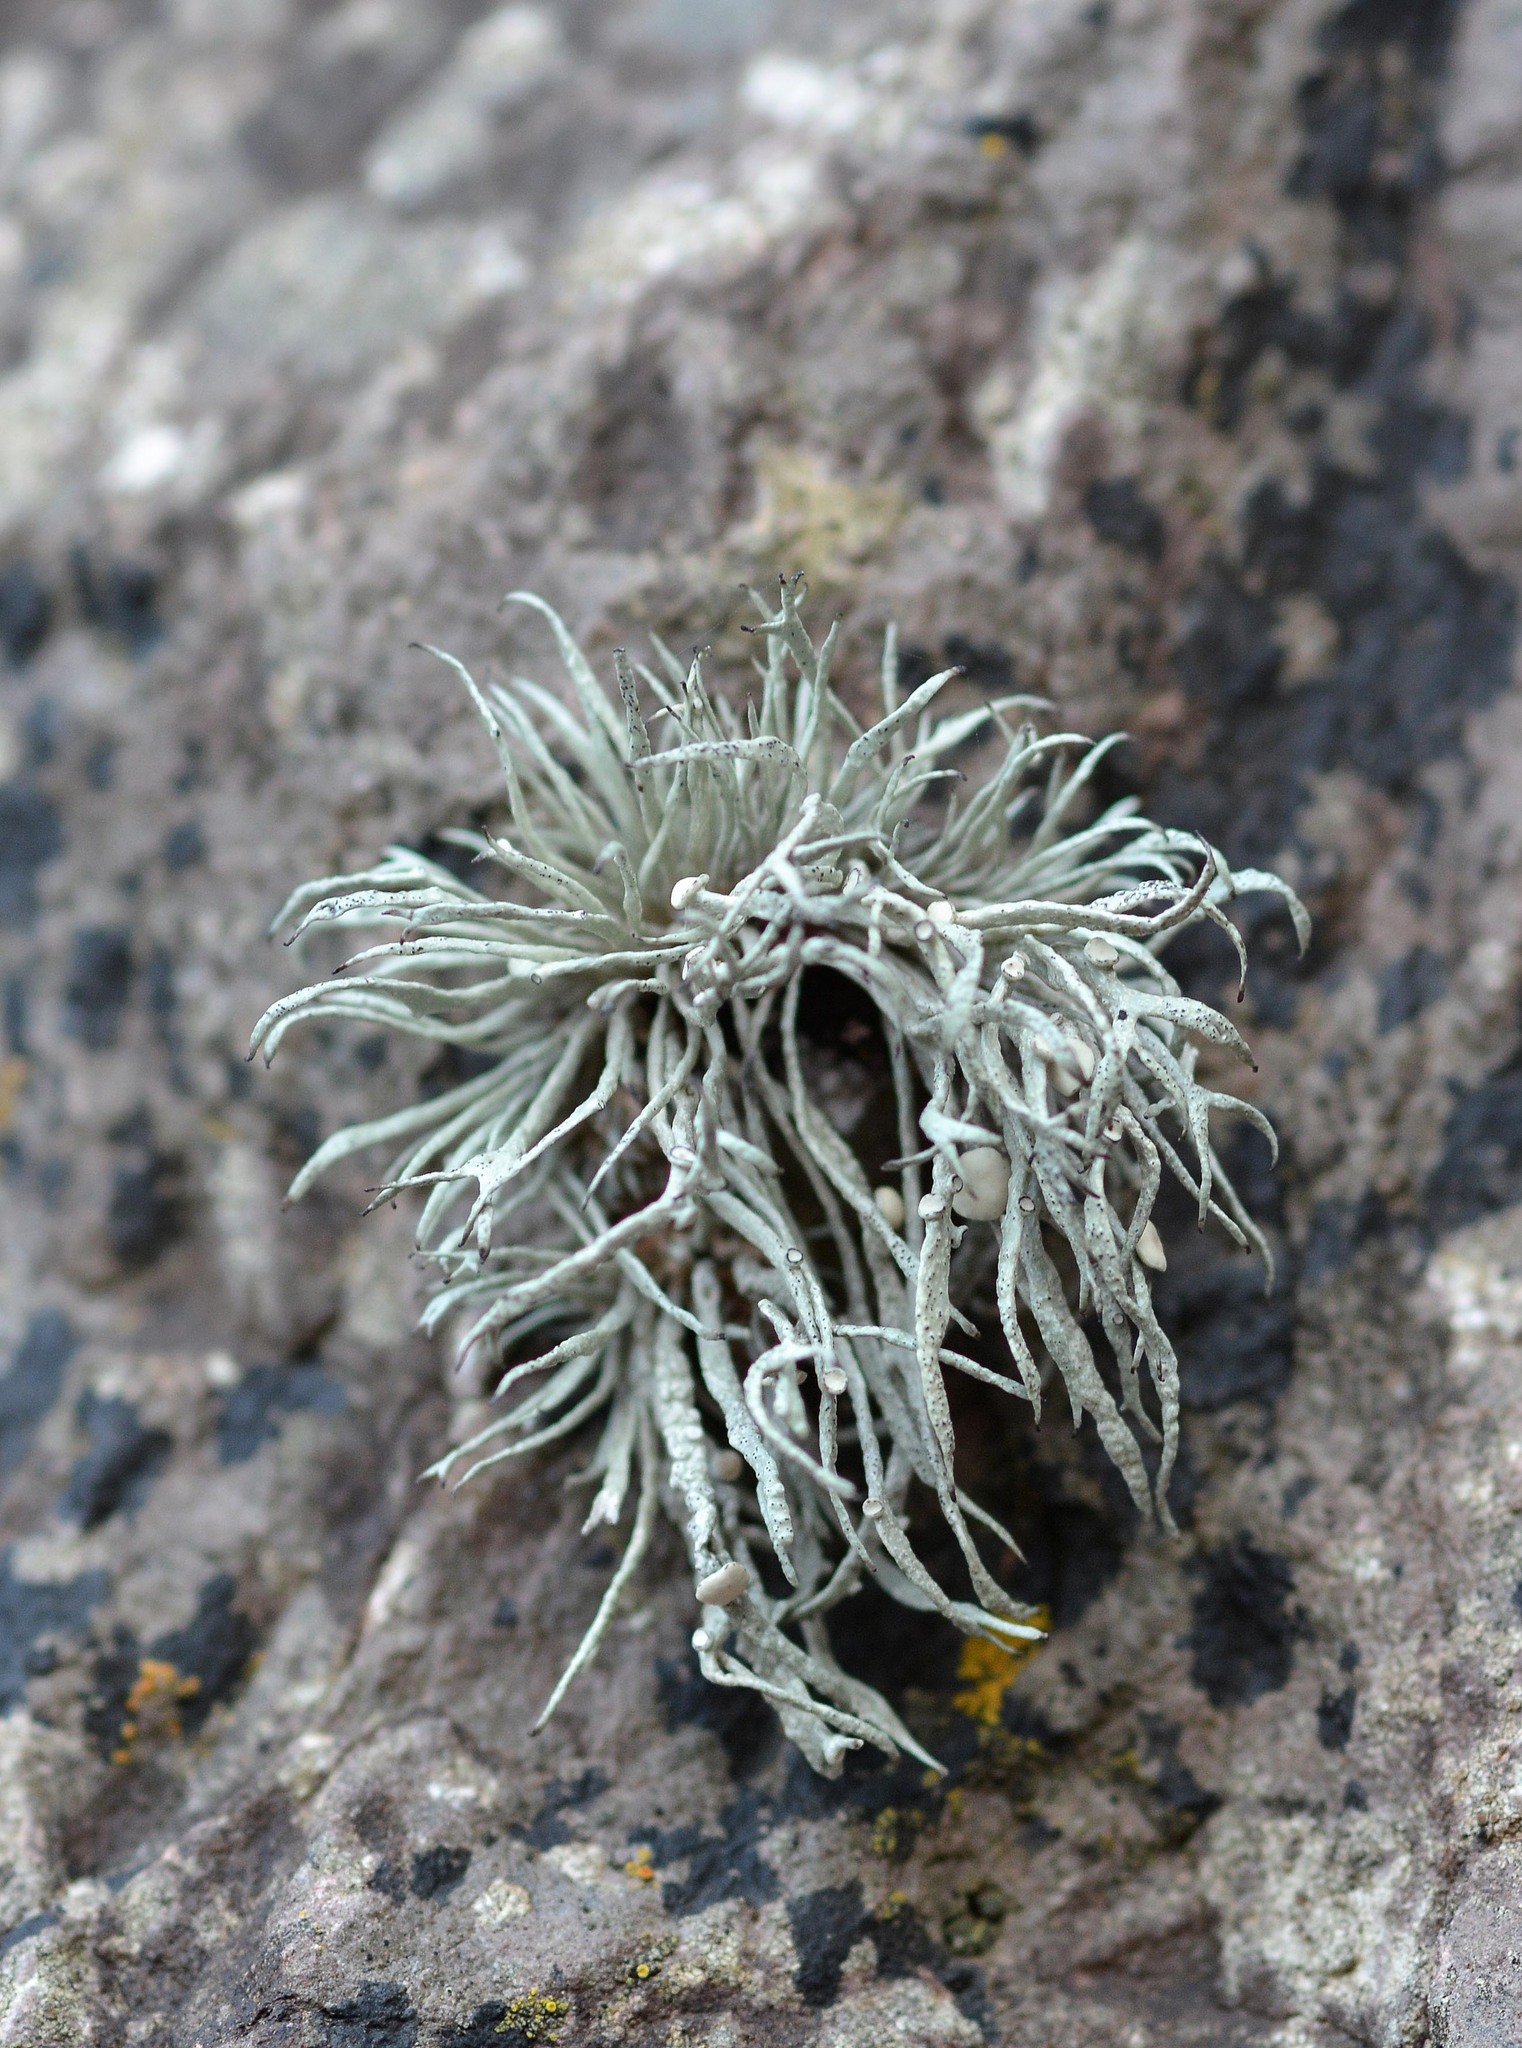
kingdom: Fungi
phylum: Ascomycota
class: Lecanoromycetes
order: Lecanorales
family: Ramalinaceae
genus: Ramalina
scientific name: Ramalina cuspidata
